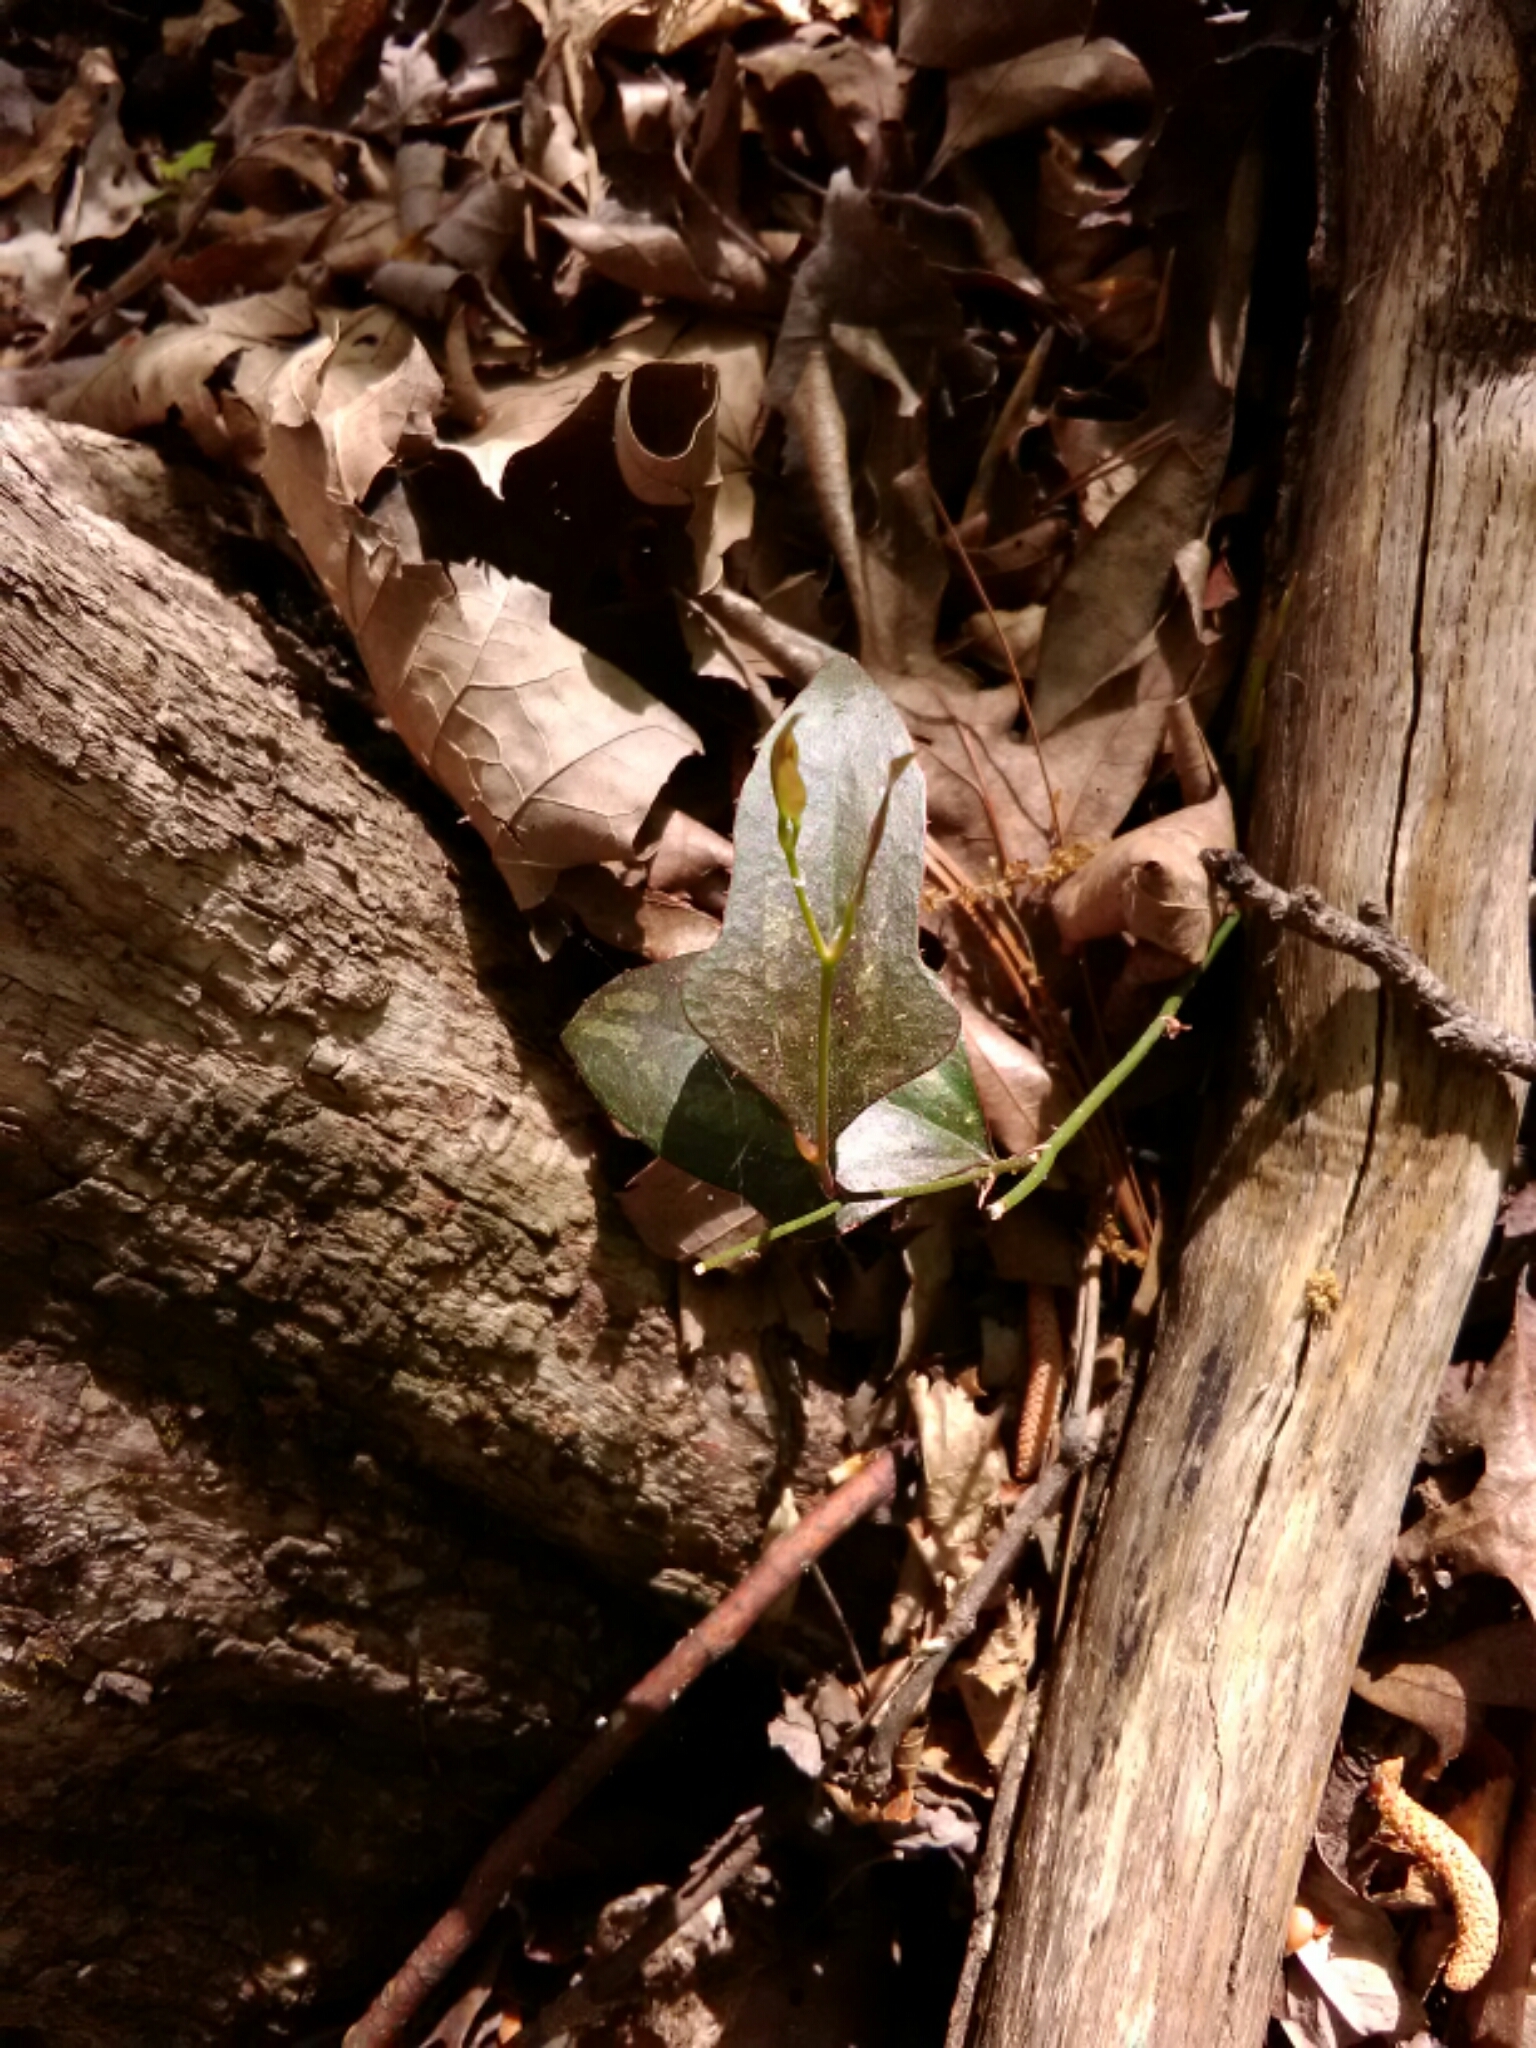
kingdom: Plantae
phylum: Tracheophyta
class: Liliopsida
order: Liliales
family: Smilacaceae
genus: Smilax
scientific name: Smilax bona-nox
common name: Catbrier
